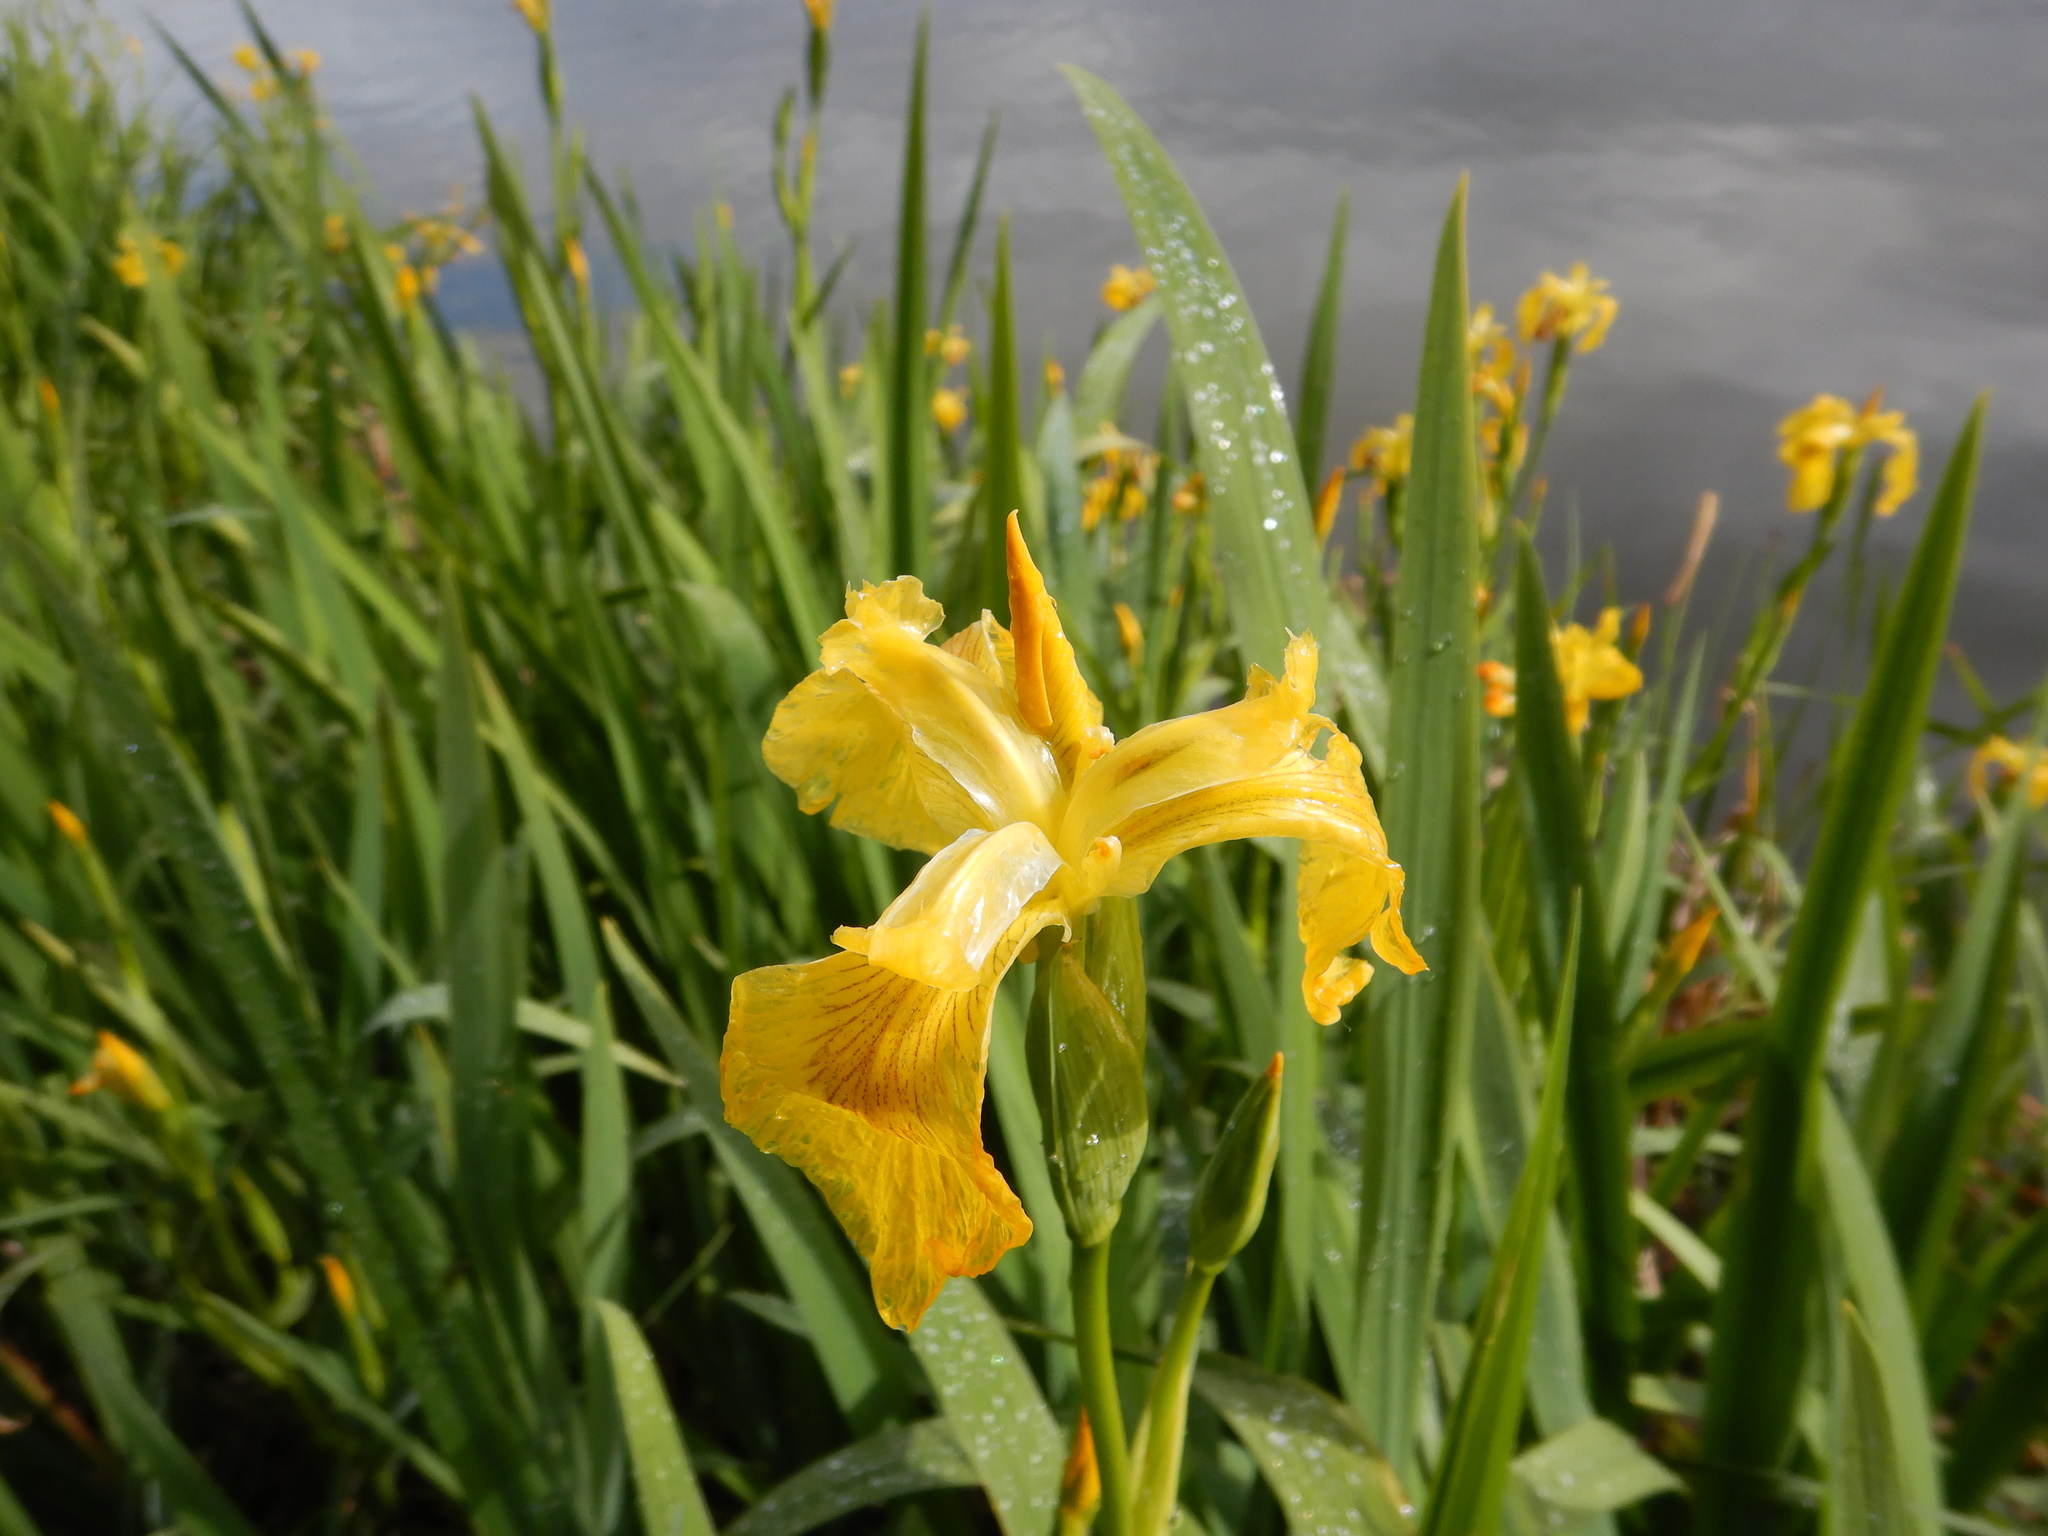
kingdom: Plantae
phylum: Tracheophyta
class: Liliopsida
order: Asparagales
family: Iridaceae
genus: Iris
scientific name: Iris pseudacorus
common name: Yellow flag
